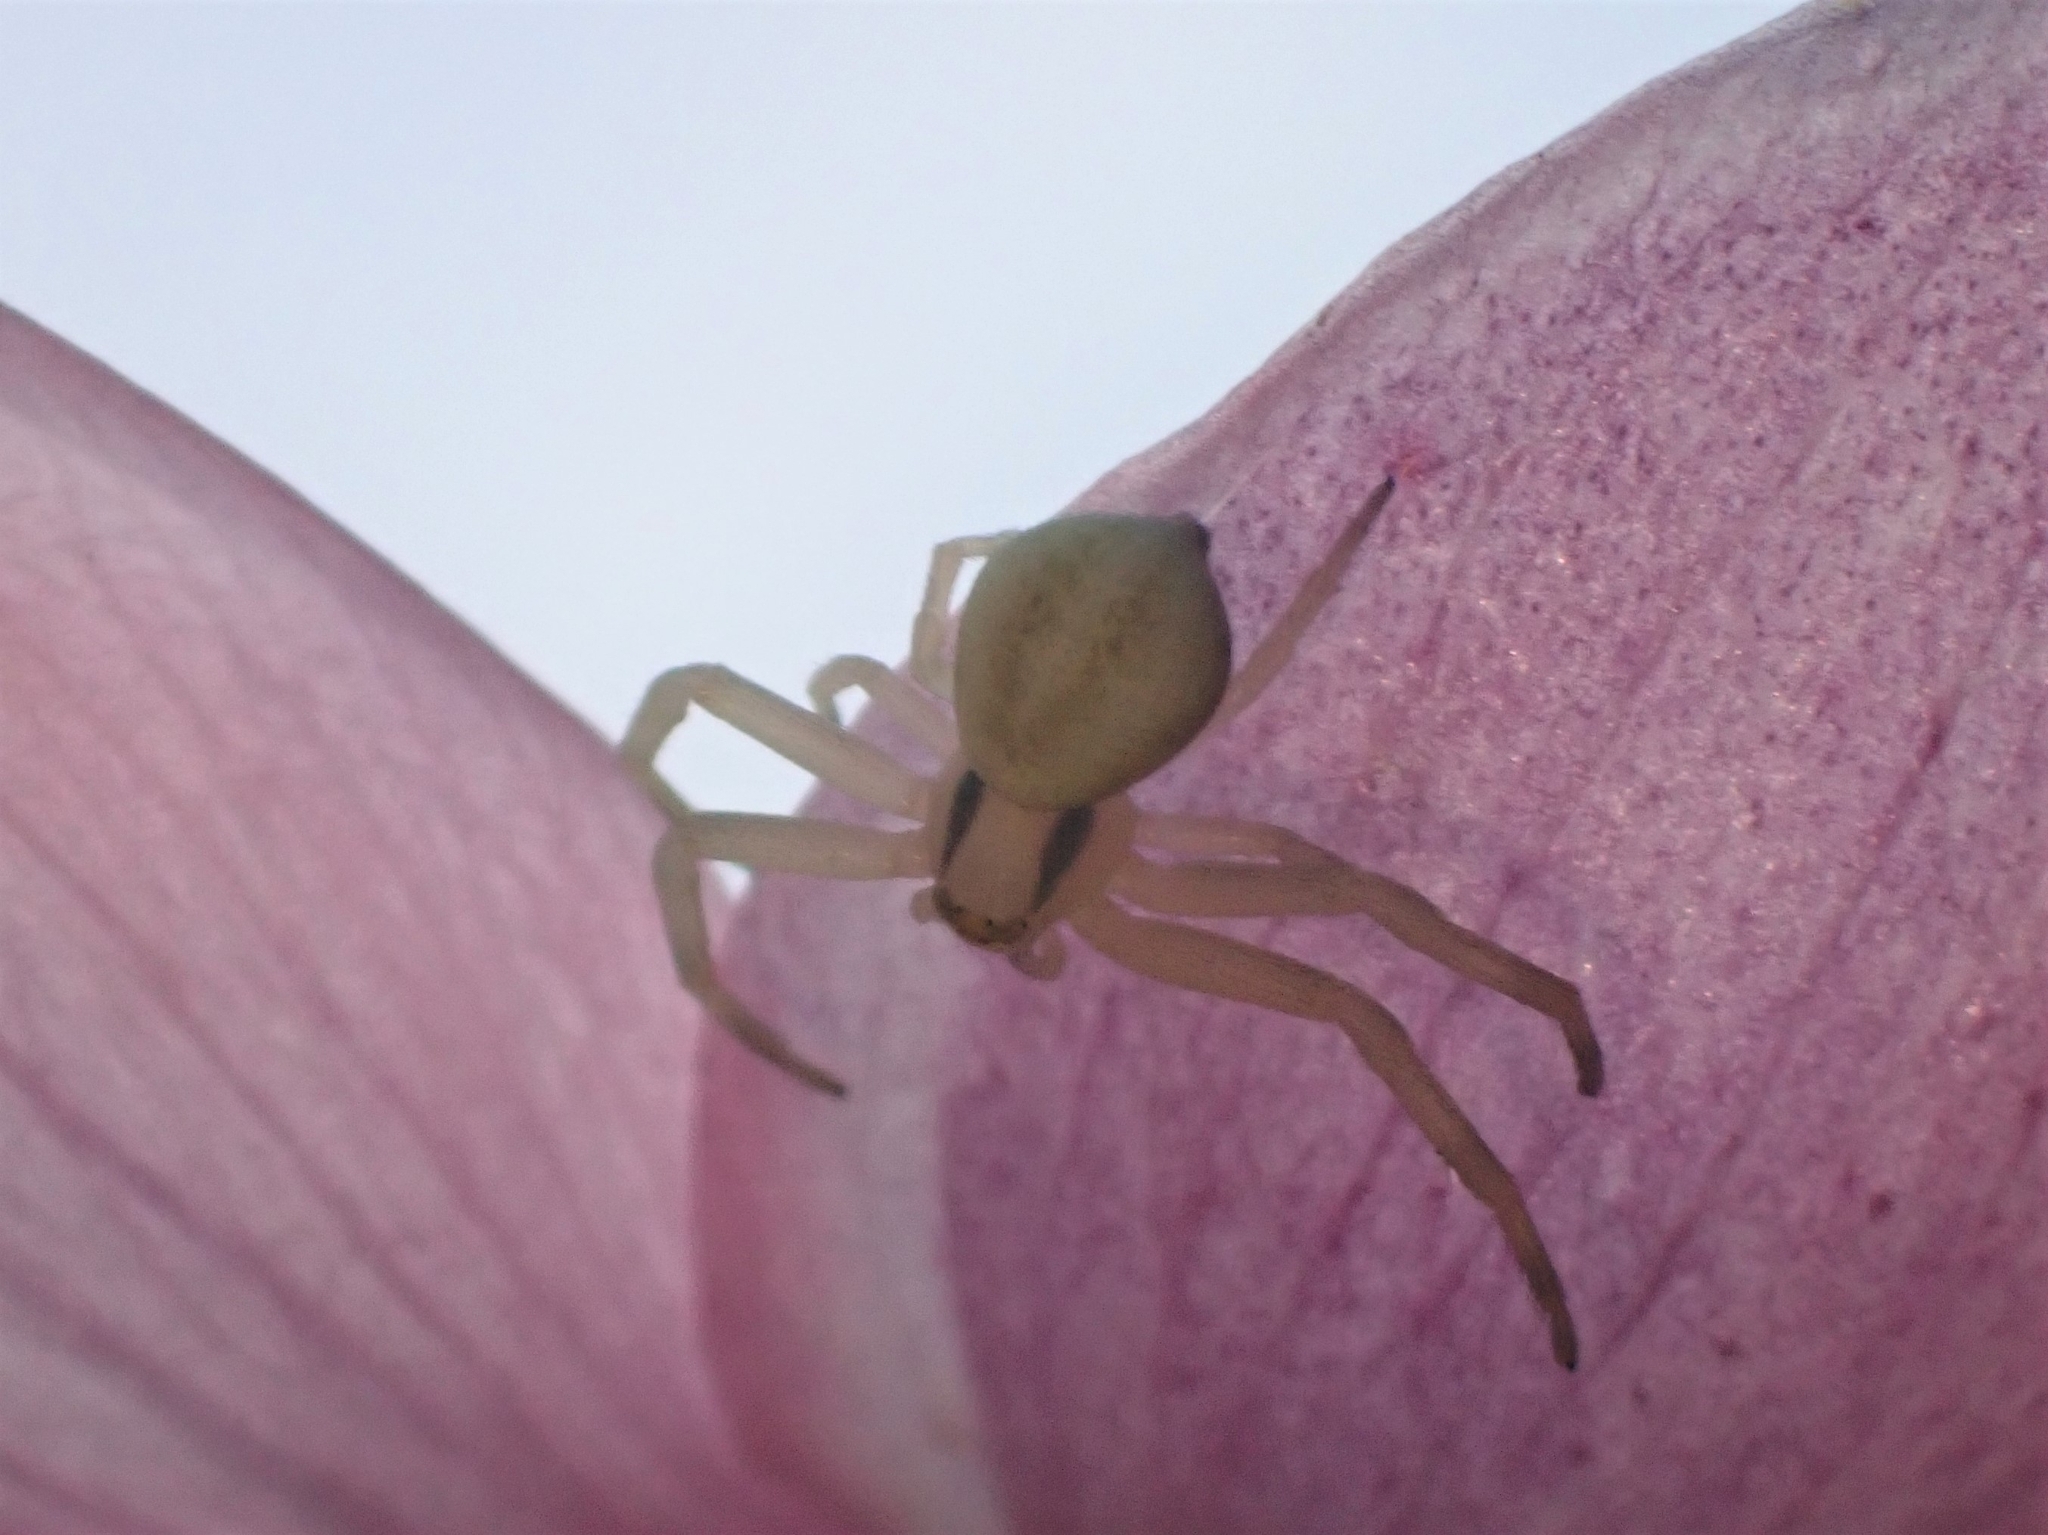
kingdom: Animalia
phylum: Arthropoda
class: Arachnida
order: Araneae
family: Thomisidae
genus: Misumena
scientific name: Misumena vatia
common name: Goldenrod crab spider
